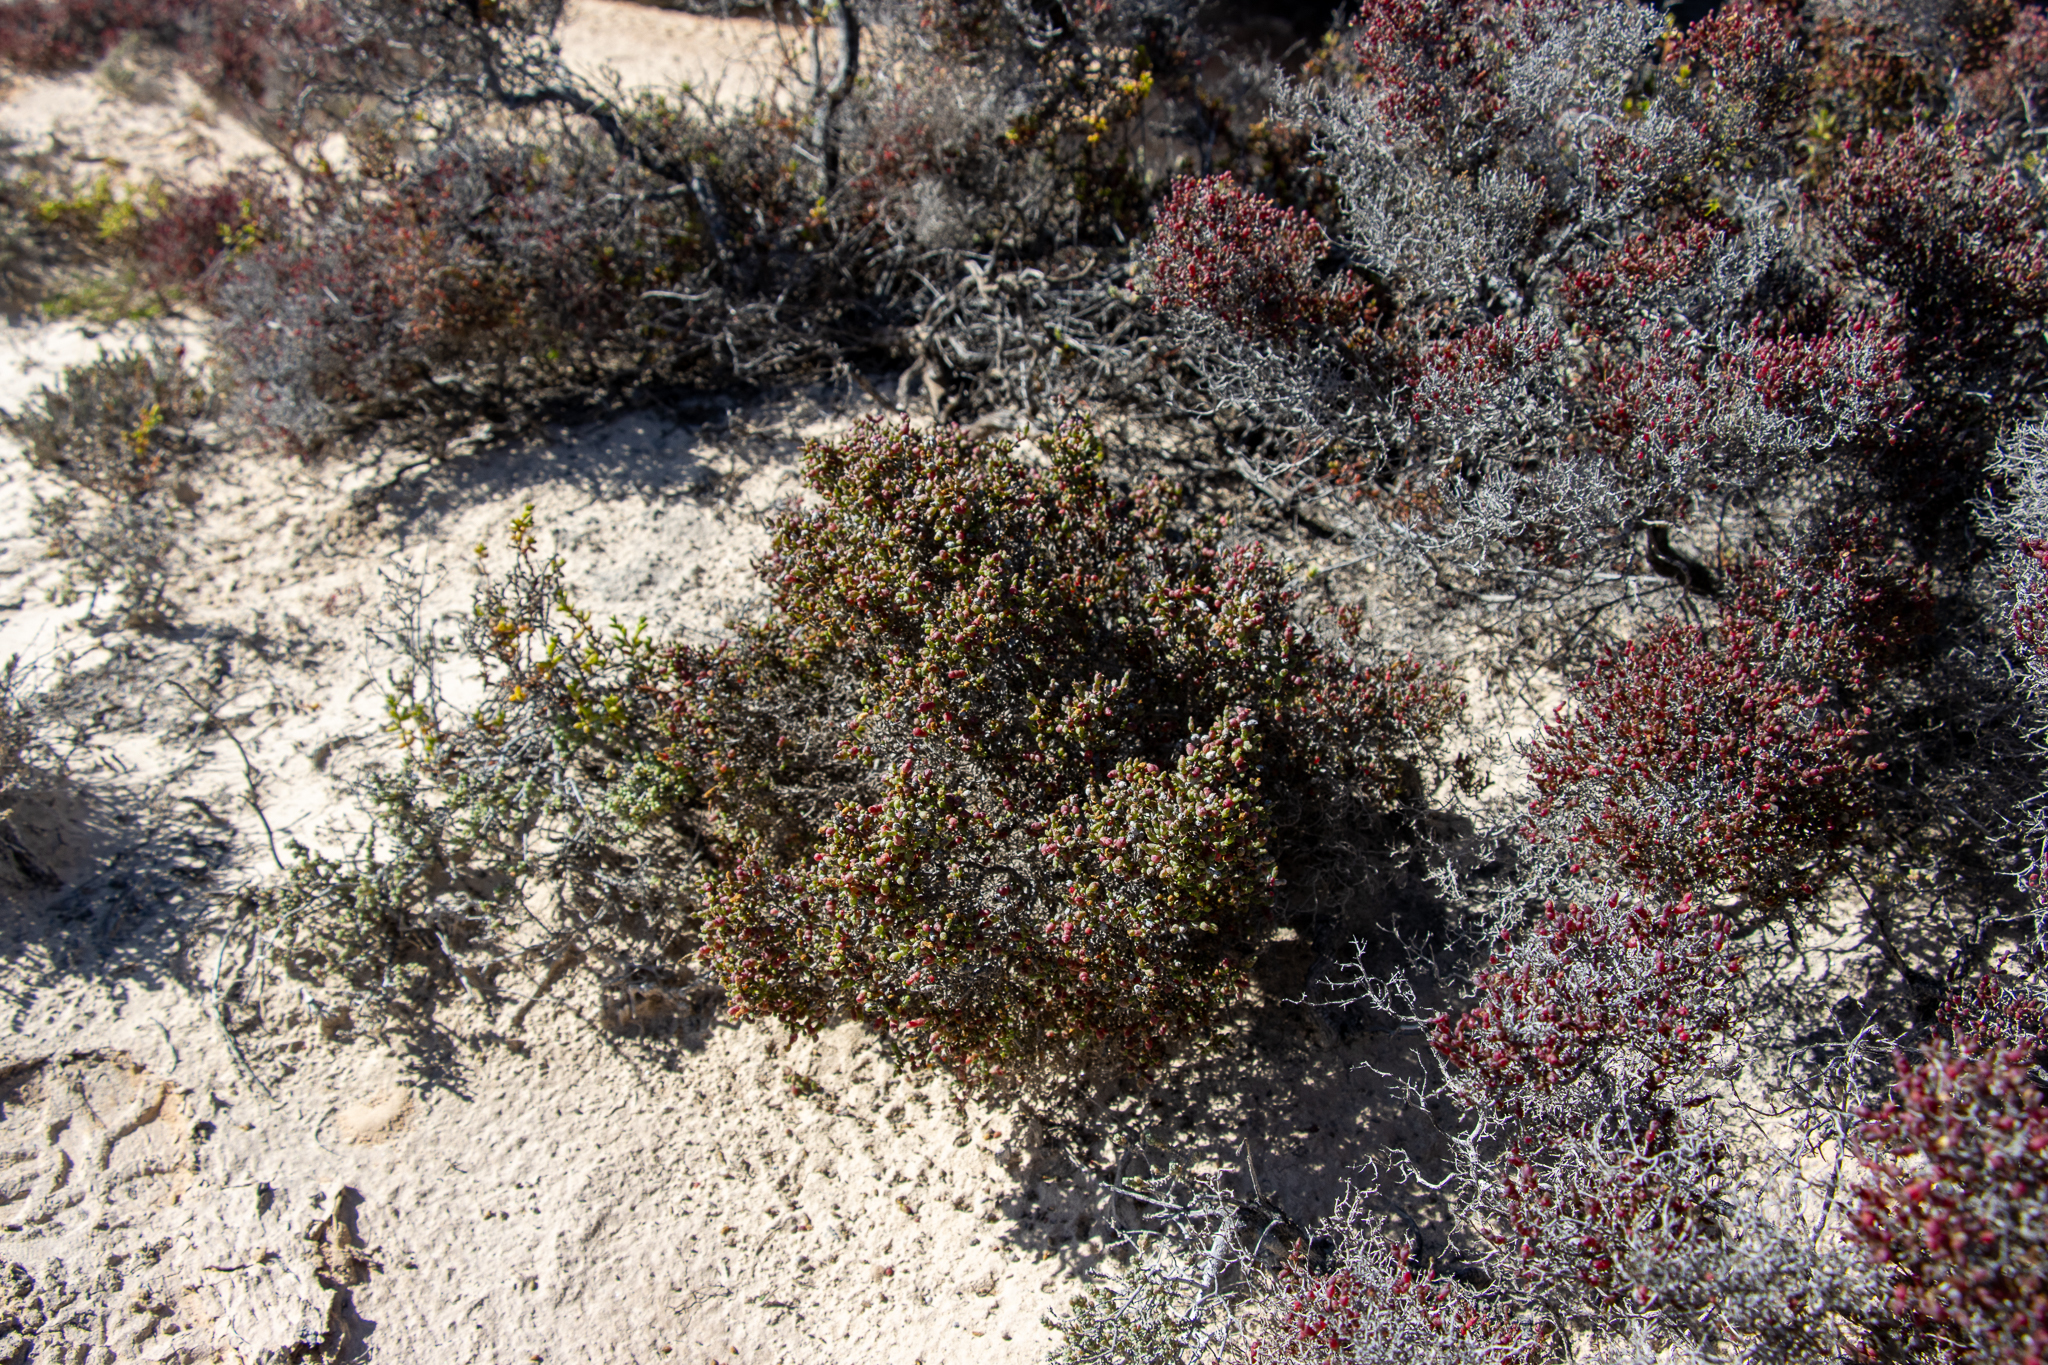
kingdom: Plantae
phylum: Tracheophyta
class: Magnoliopsida
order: Caryophyllales
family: Amaranthaceae
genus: Tecticornia
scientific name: Tecticornia moniliformis
